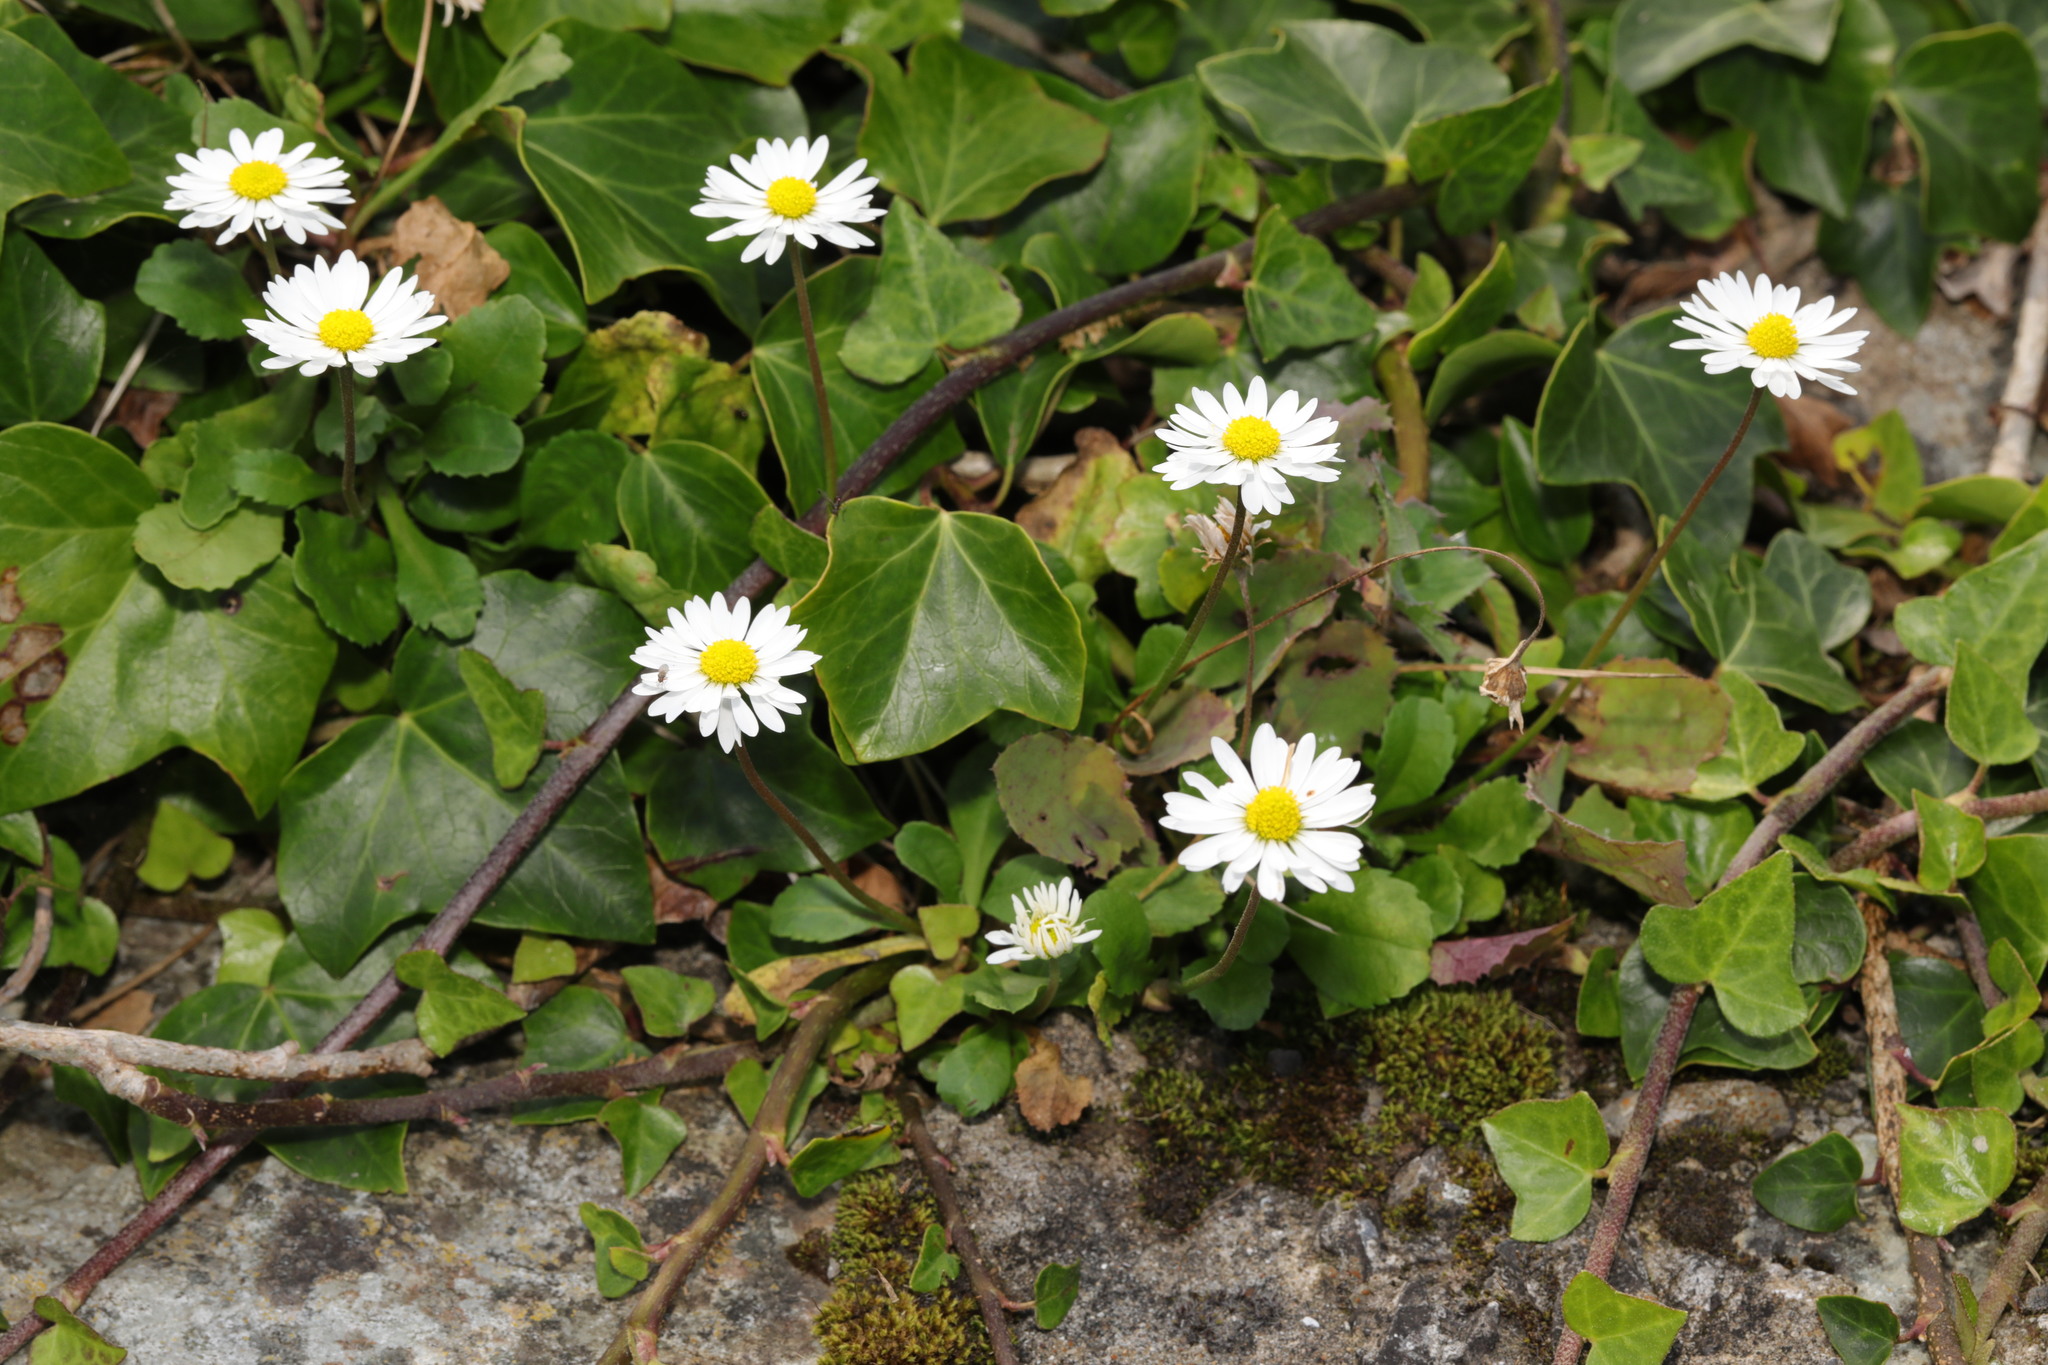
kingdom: Plantae
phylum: Tracheophyta
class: Magnoliopsida
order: Asterales
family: Asteraceae
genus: Bellis
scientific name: Bellis perennis
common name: Lawndaisy
